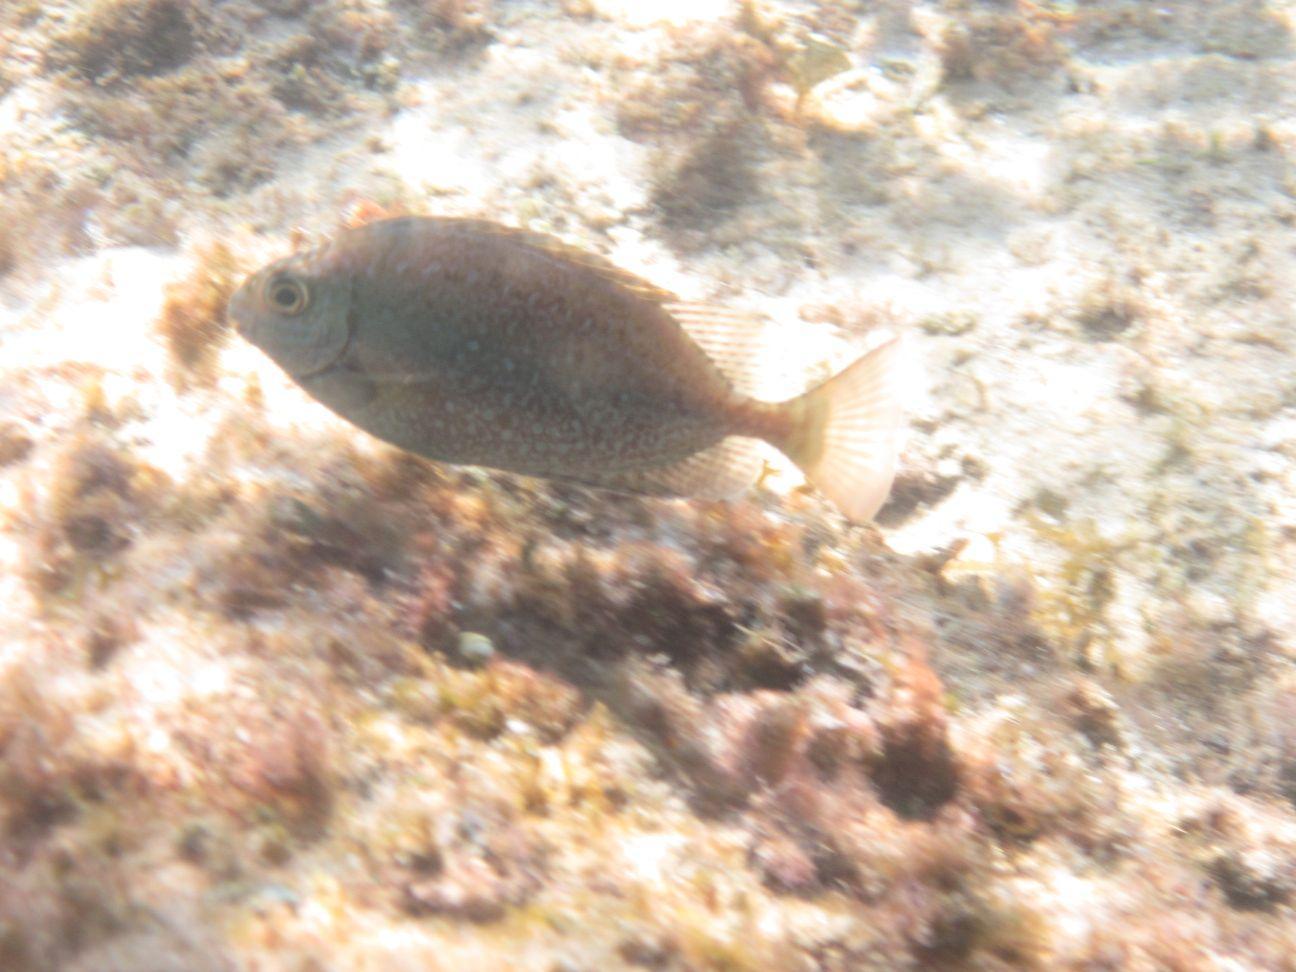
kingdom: Animalia
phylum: Chordata
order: Perciformes
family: Siganidae
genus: Siganus
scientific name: Siganus sutor
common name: Shoemaker spinefoot
